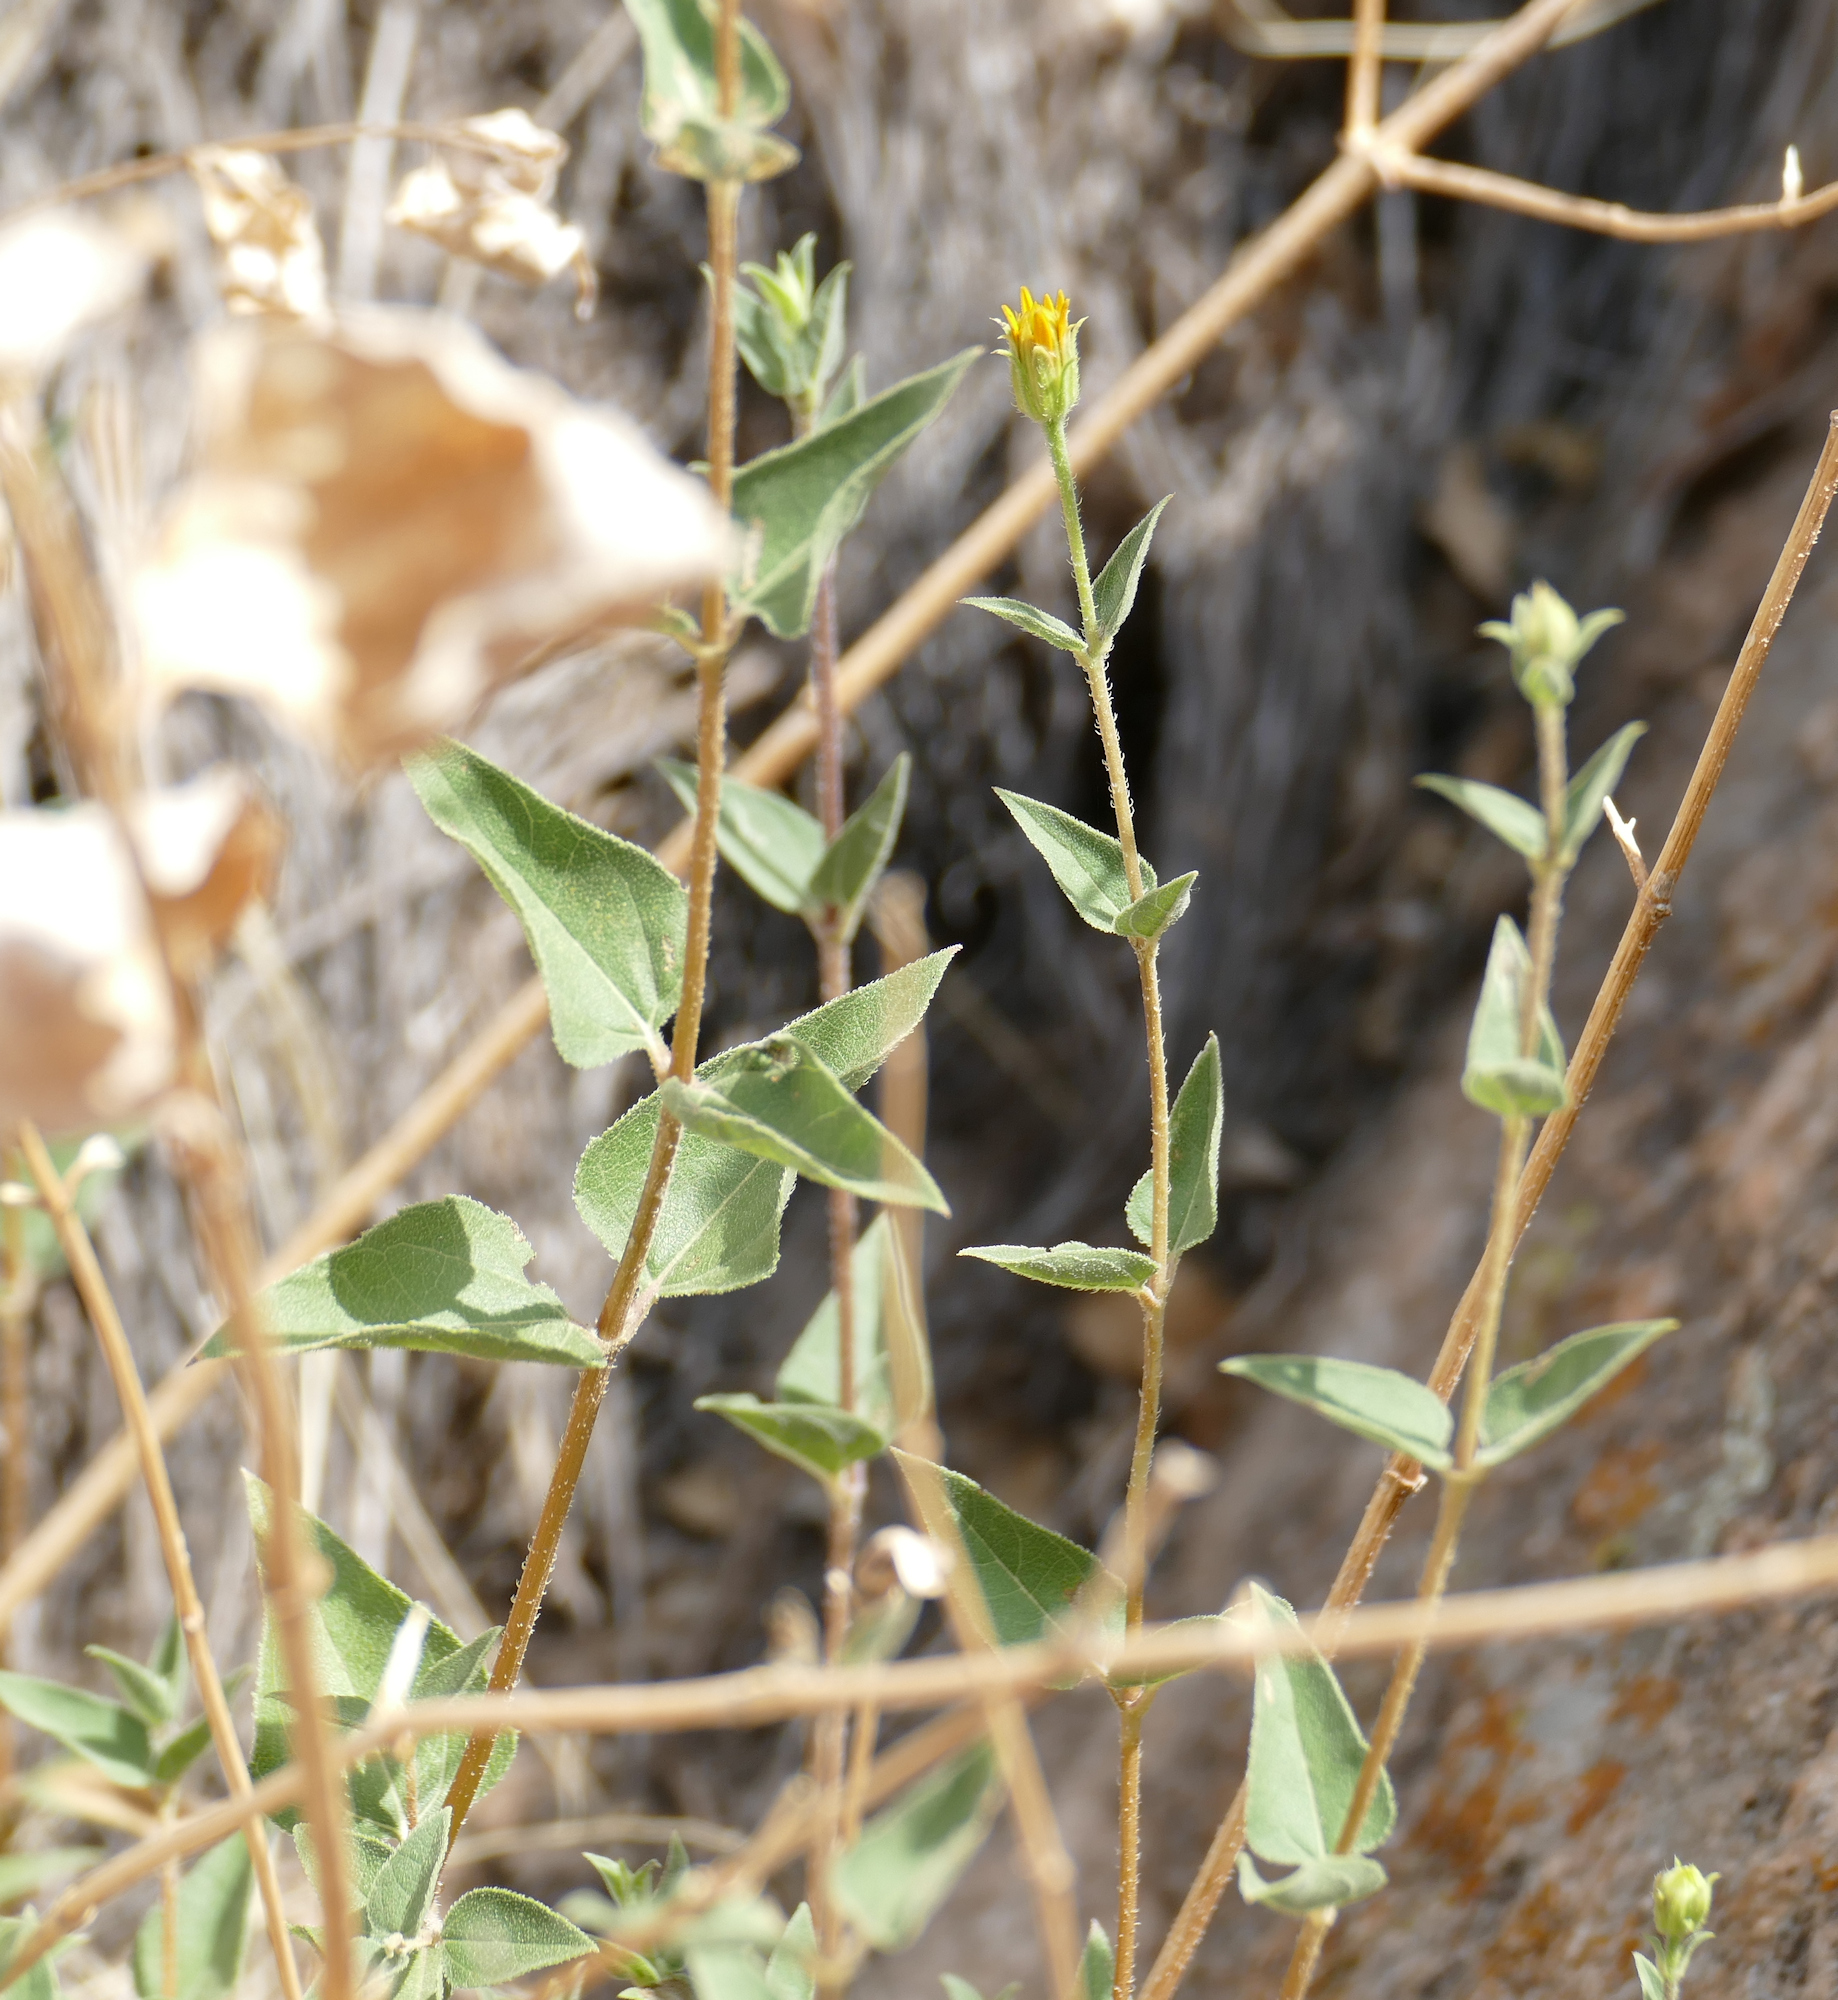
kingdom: Plantae
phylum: Tracheophyta
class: Magnoliopsida
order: Asterales
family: Asteraceae
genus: Aldama
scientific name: Aldama cordifolia
